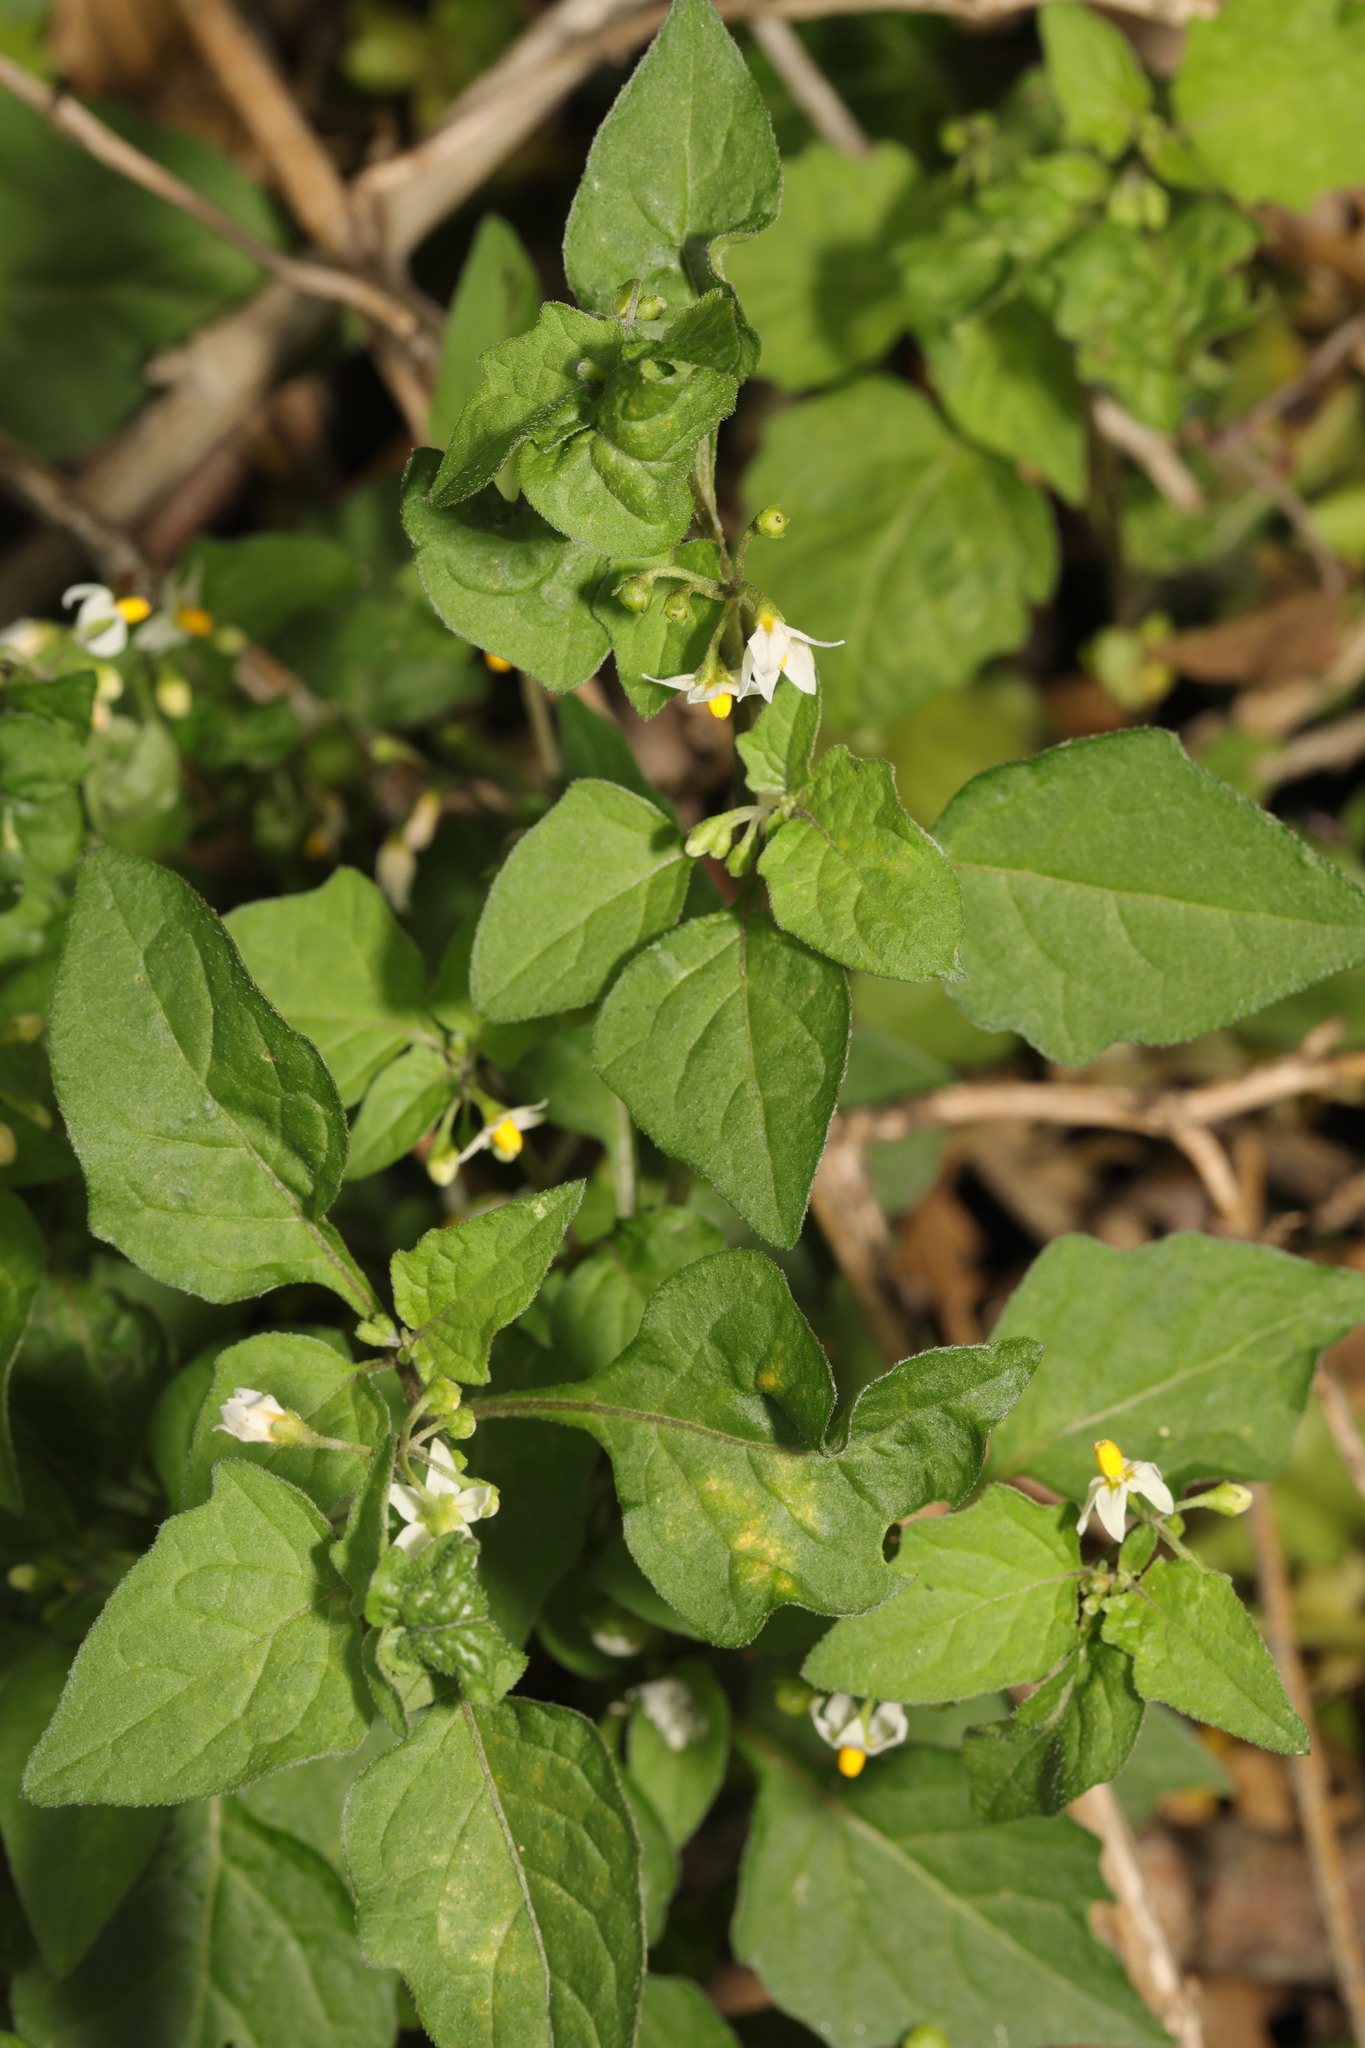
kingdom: Plantae
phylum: Tracheophyta
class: Magnoliopsida
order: Solanales
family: Solanaceae
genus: Solanum
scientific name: Solanum nigrum
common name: Black nightshade
